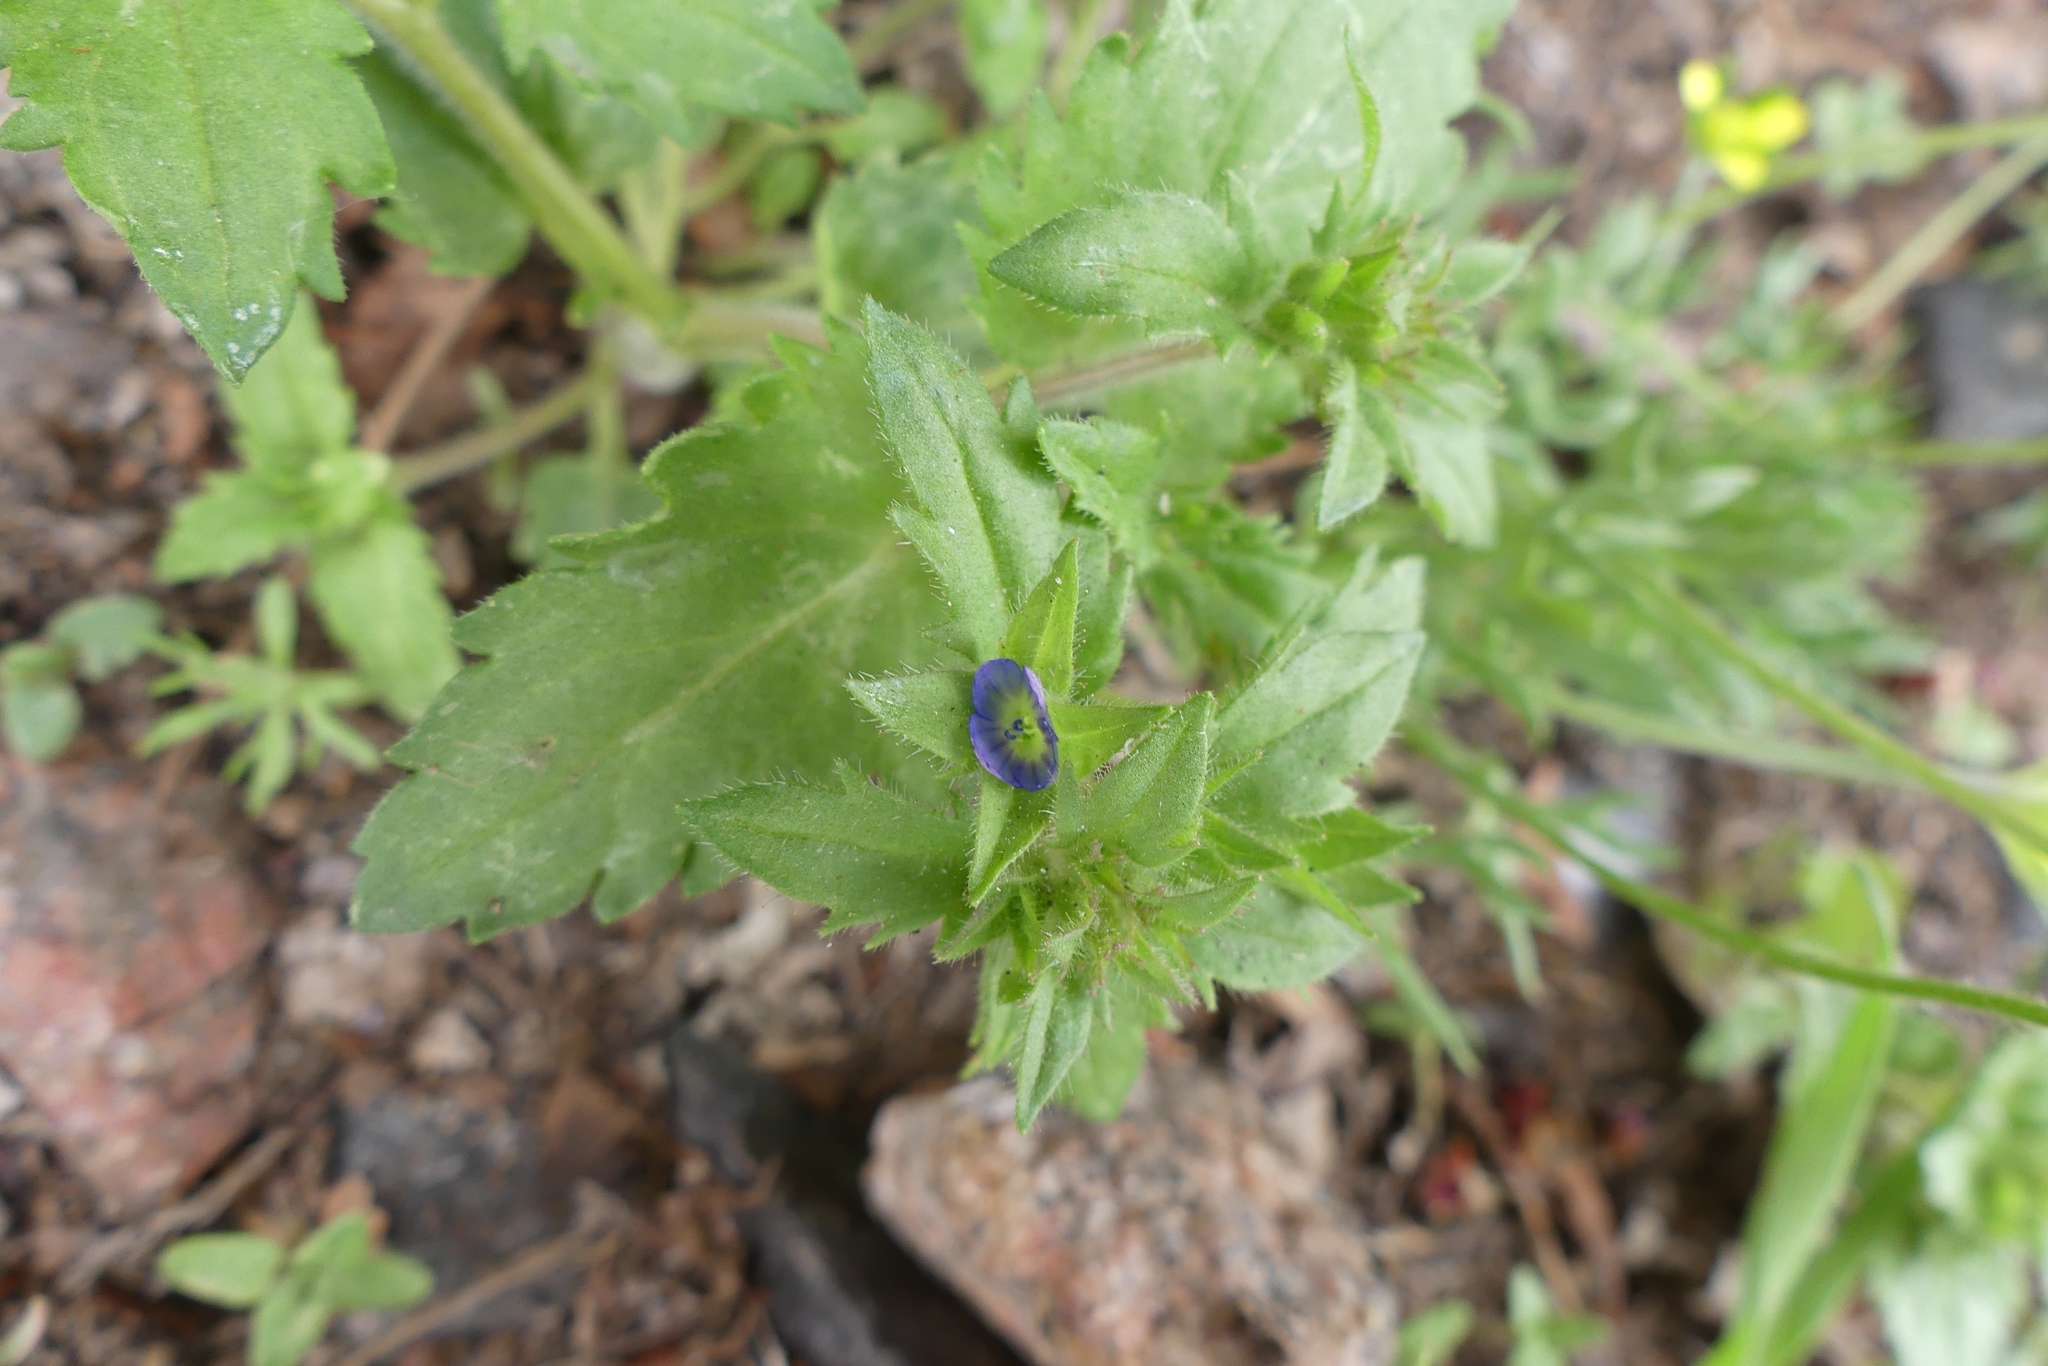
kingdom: Plantae
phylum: Tracheophyta
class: Magnoliopsida
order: Lamiales
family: Plantaginaceae
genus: Veronica
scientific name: Veronica argute-serrata
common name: Sawtooth speedwell
